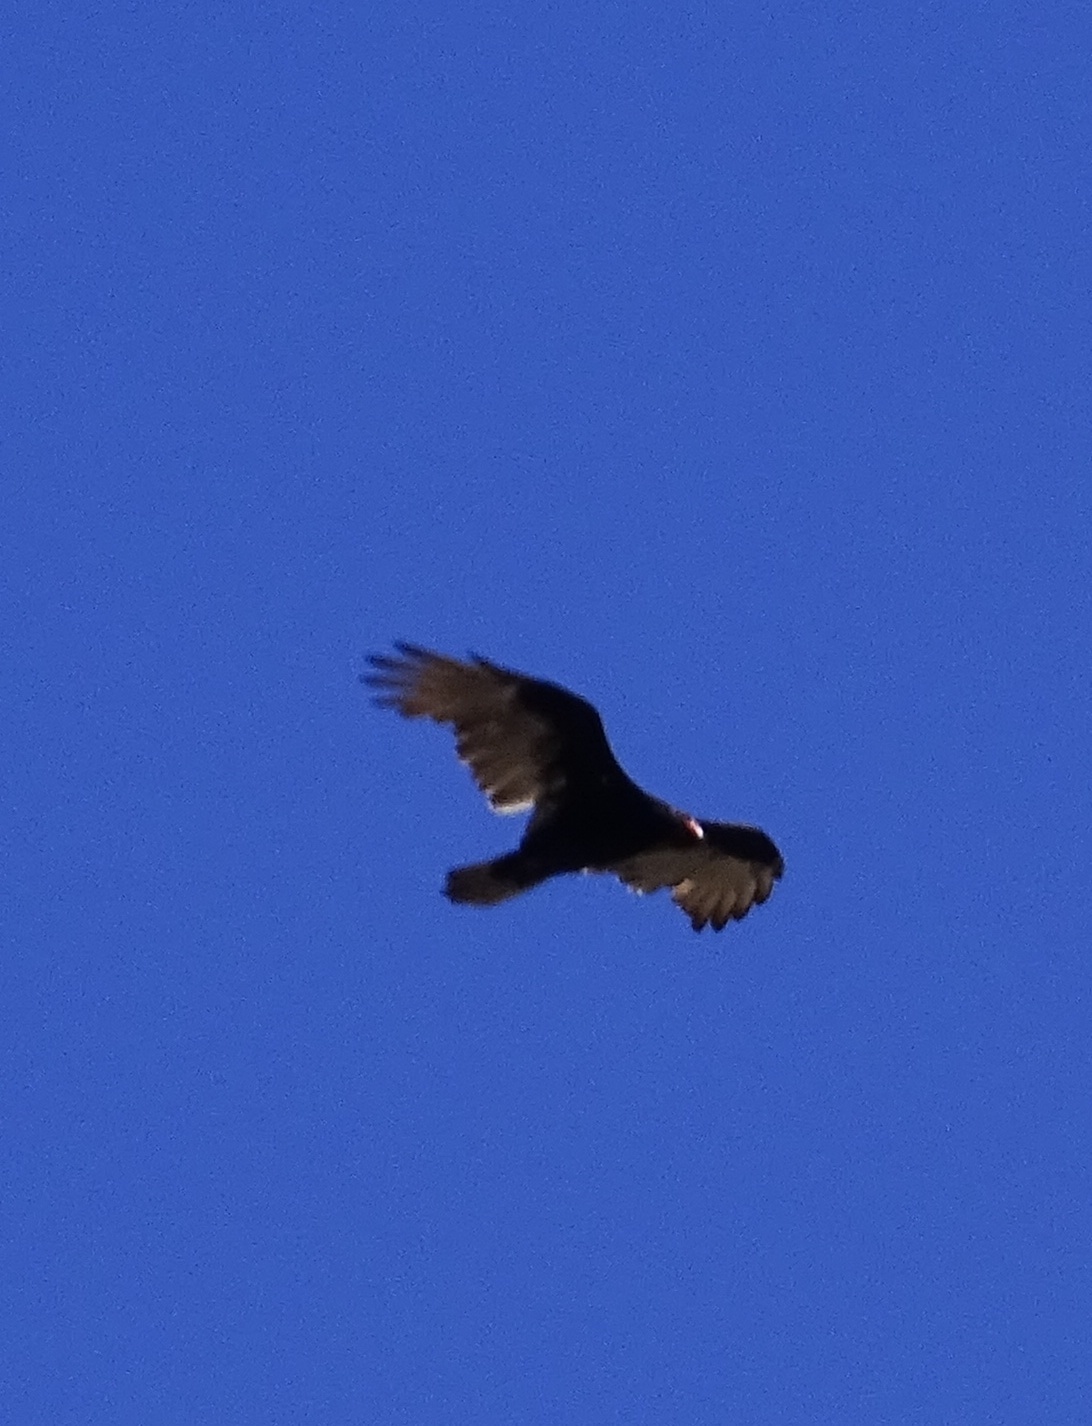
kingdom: Animalia
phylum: Chordata
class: Aves
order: Accipitriformes
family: Cathartidae
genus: Cathartes
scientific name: Cathartes aura
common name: Turkey vulture
